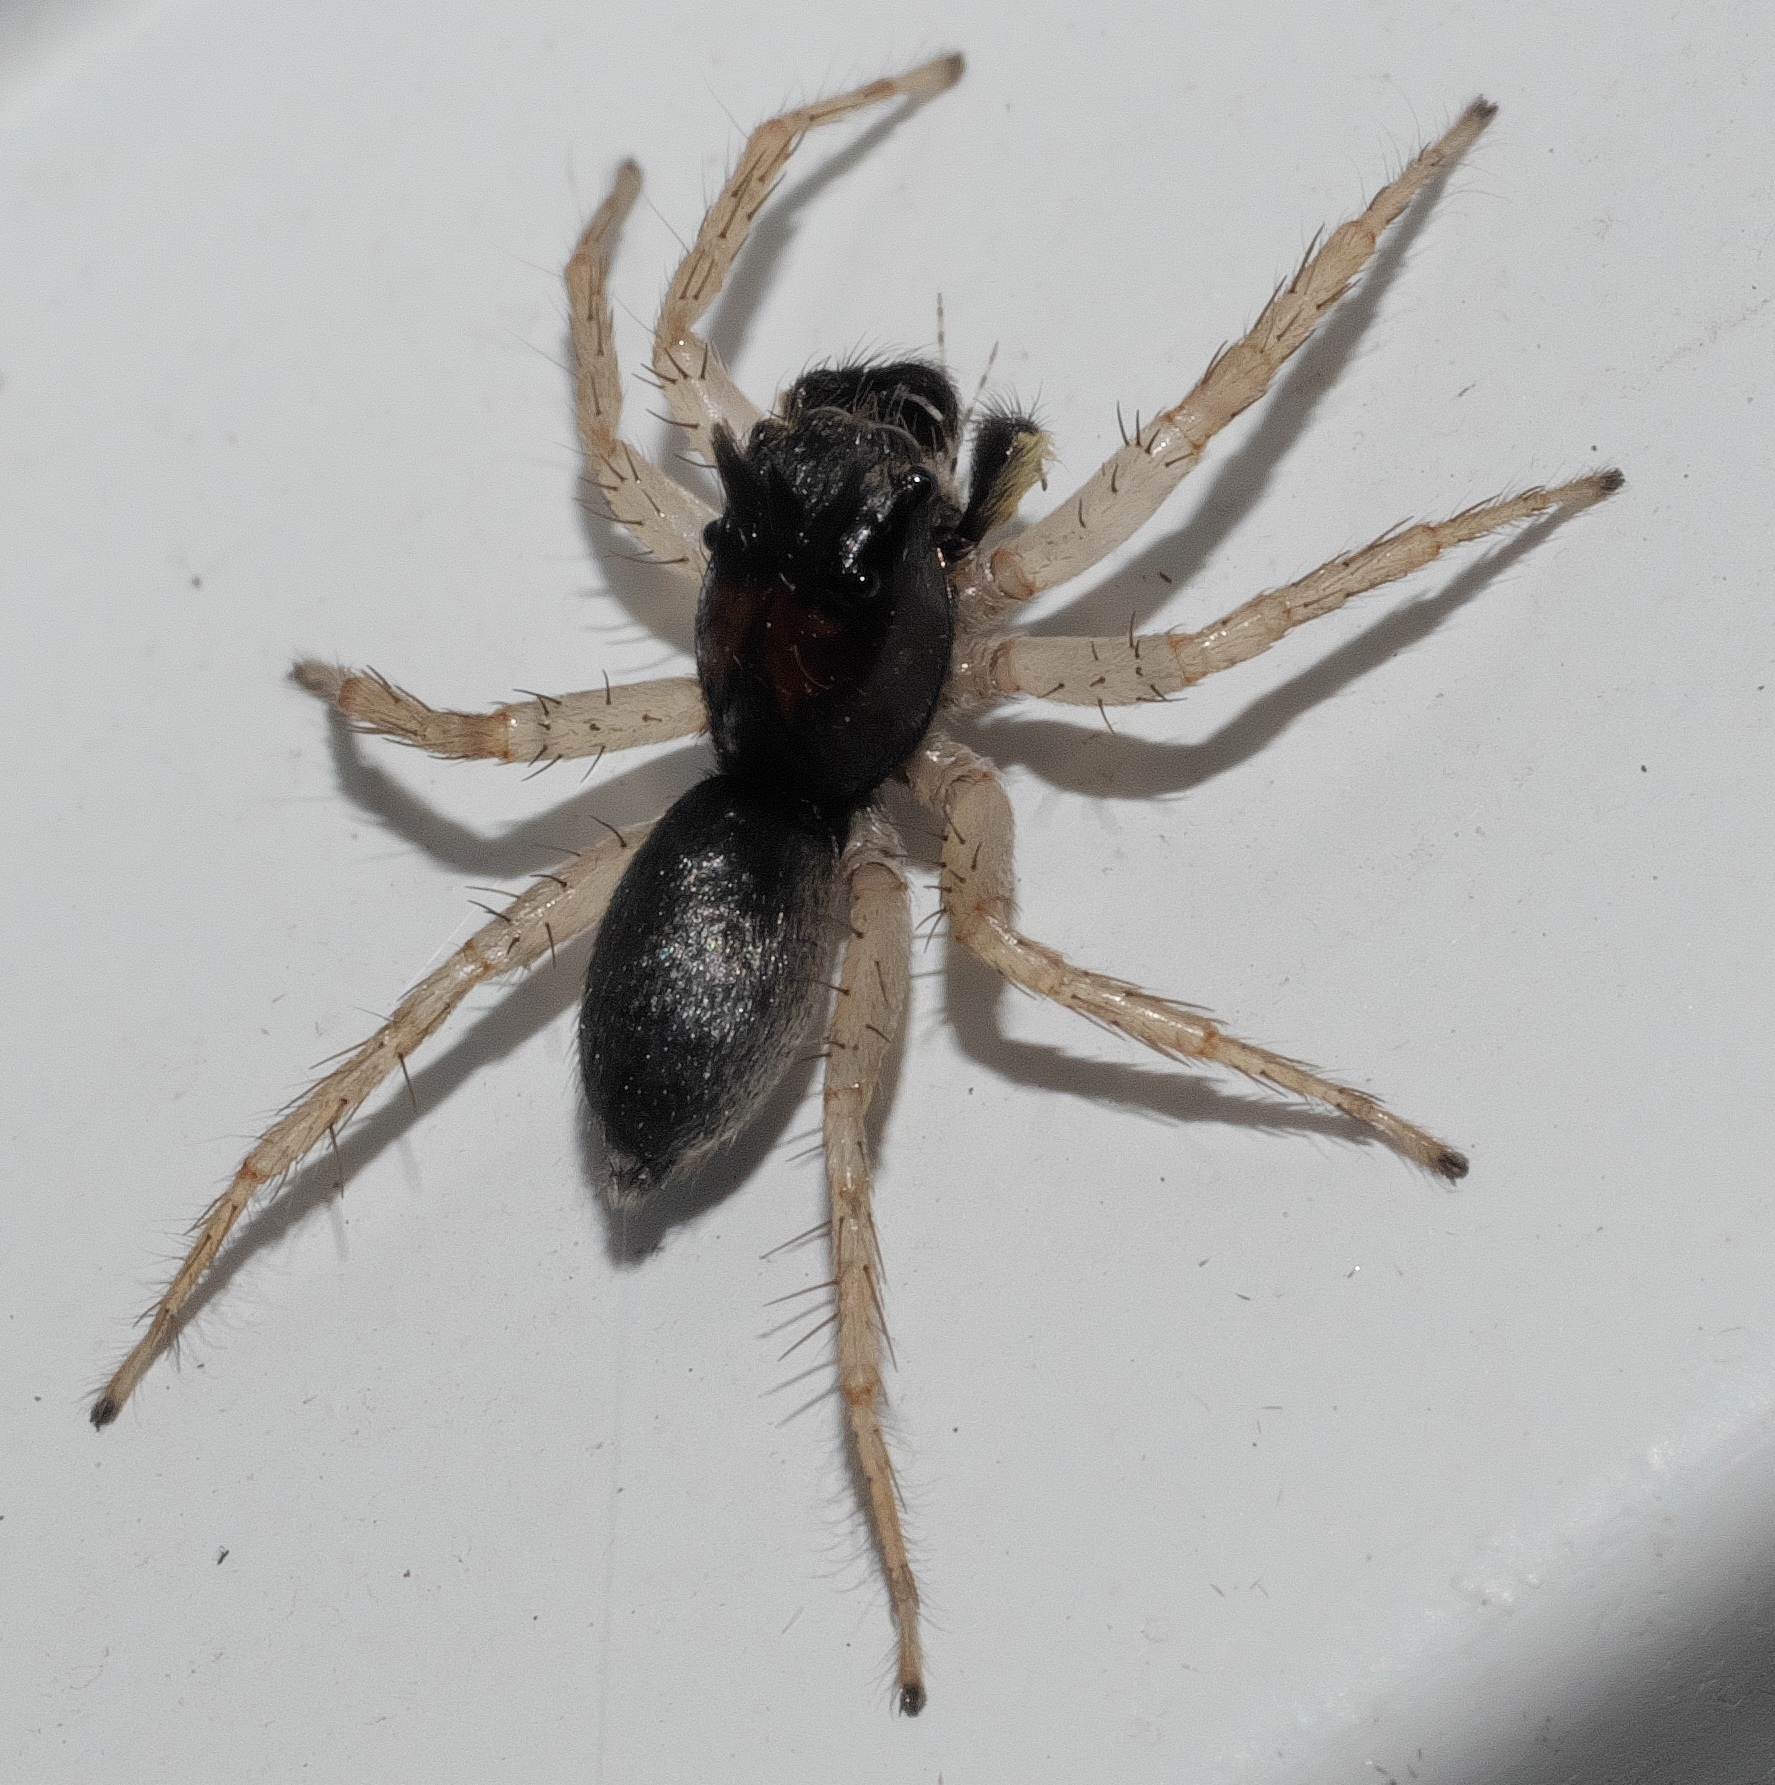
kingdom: Animalia
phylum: Arthropoda
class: Arachnida
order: Araneae
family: Salticidae
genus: Maevia
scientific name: Maevia inclemens
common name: Dimorphic jumper
